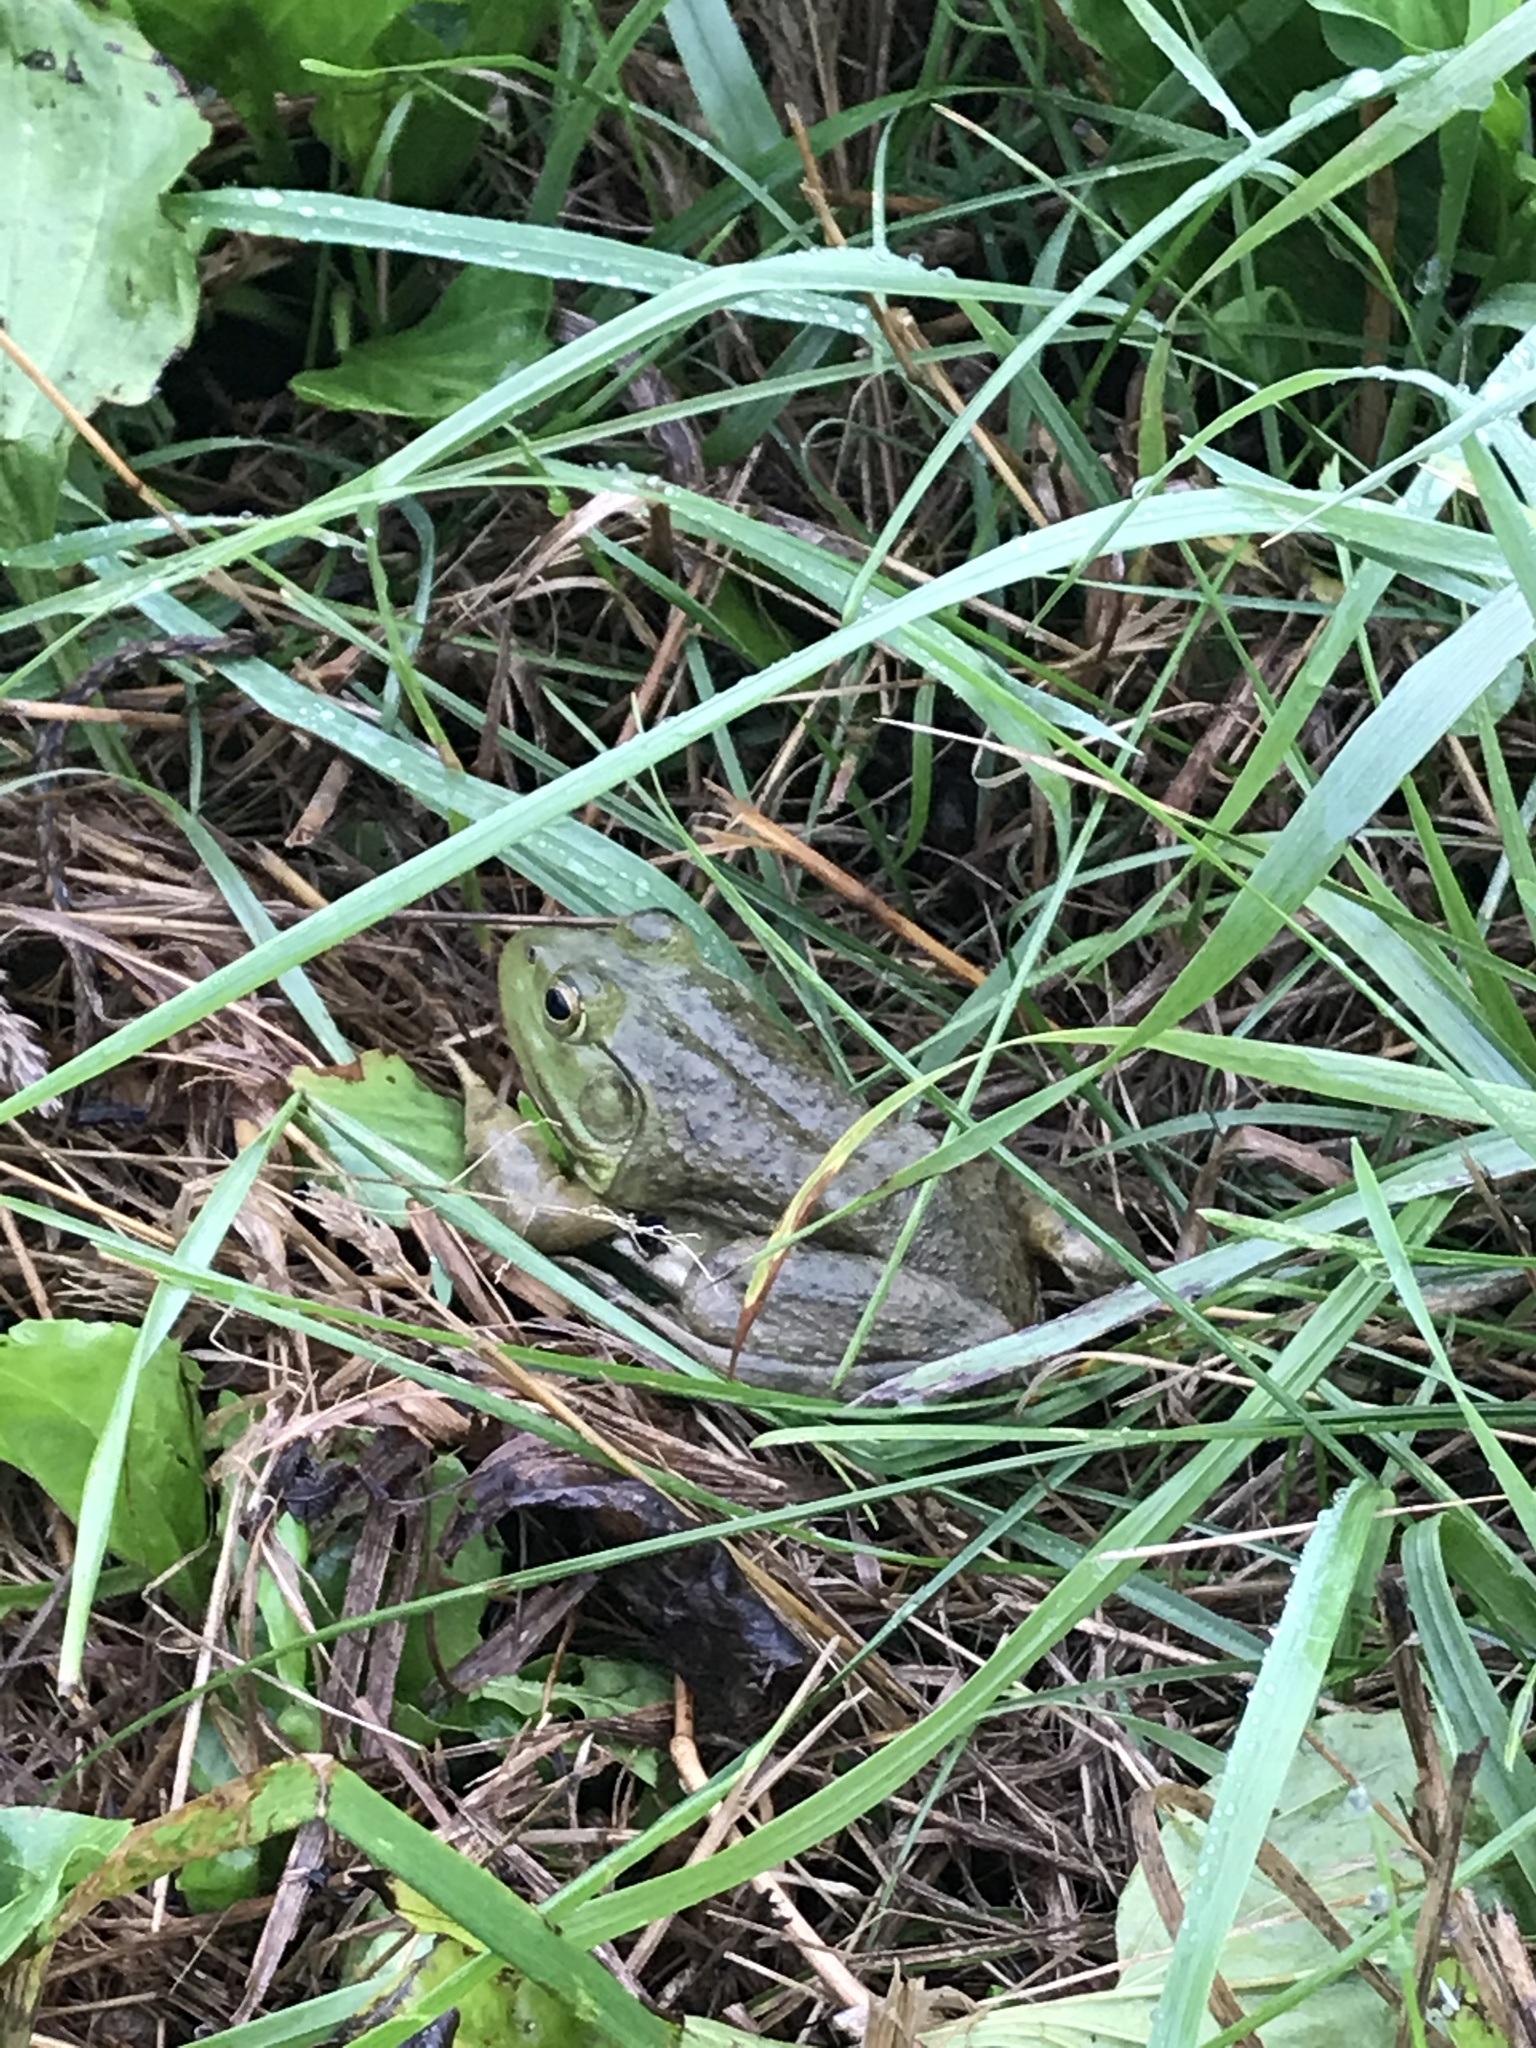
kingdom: Animalia
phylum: Chordata
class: Amphibia
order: Anura
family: Ranidae
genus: Lithobates
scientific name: Lithobates catesbeianus
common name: American bullfrog
